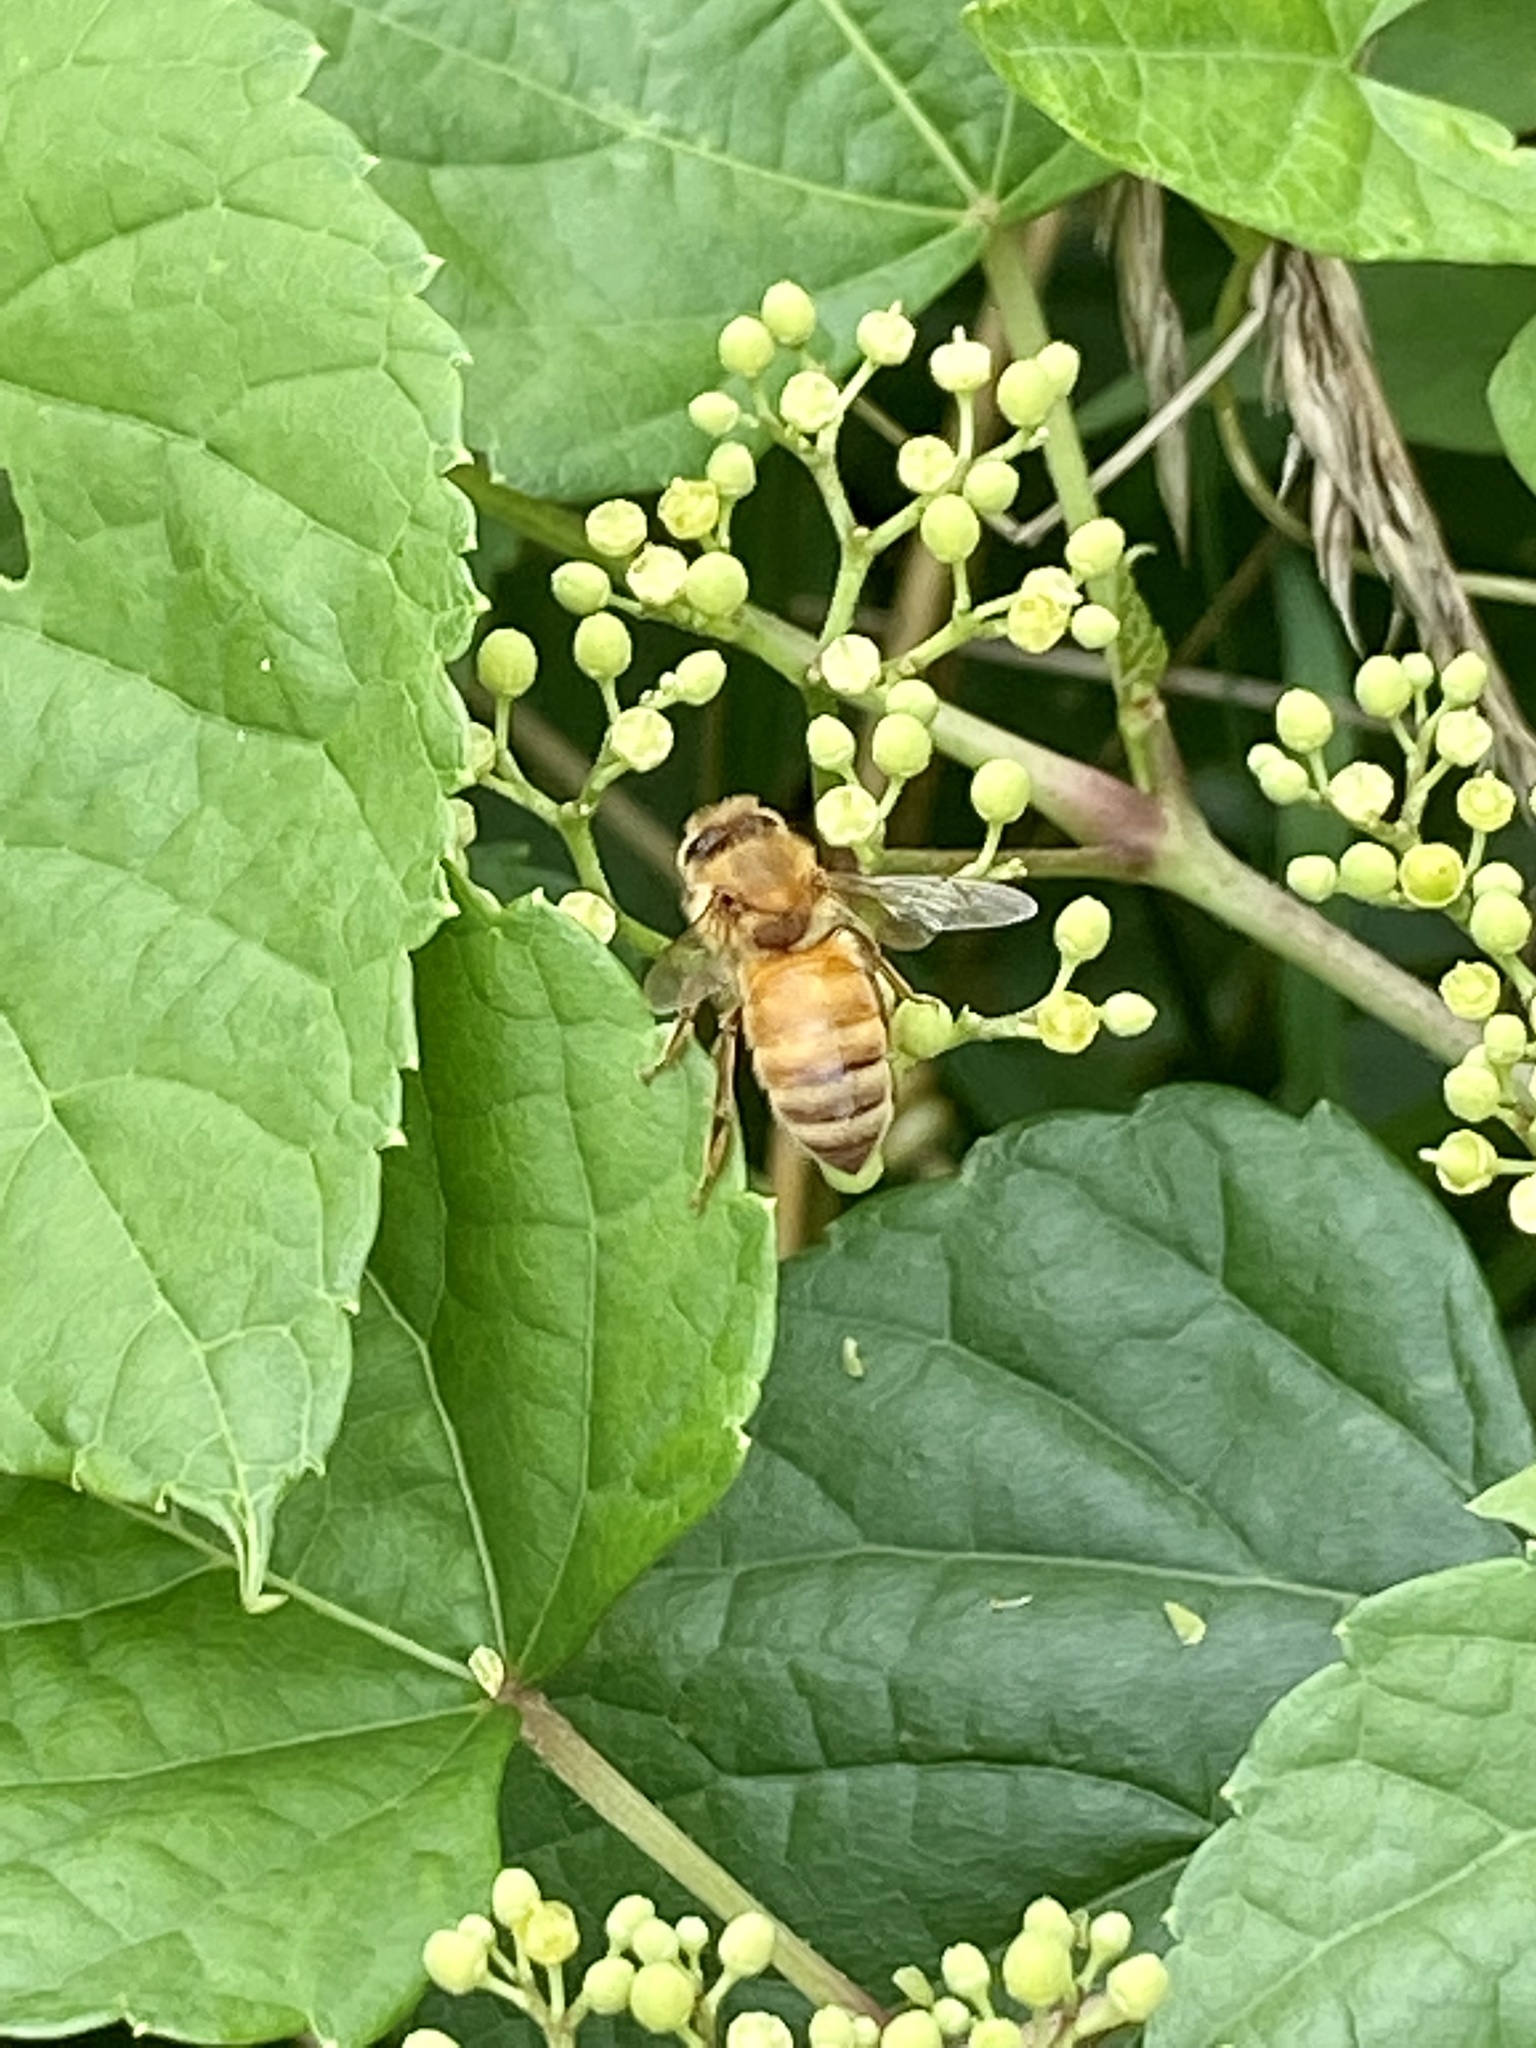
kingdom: Animalia
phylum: Arthropoda
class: Insecta
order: Hymenoptera
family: Apidae
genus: Apis
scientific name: Apis mellifera
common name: Honey bee
